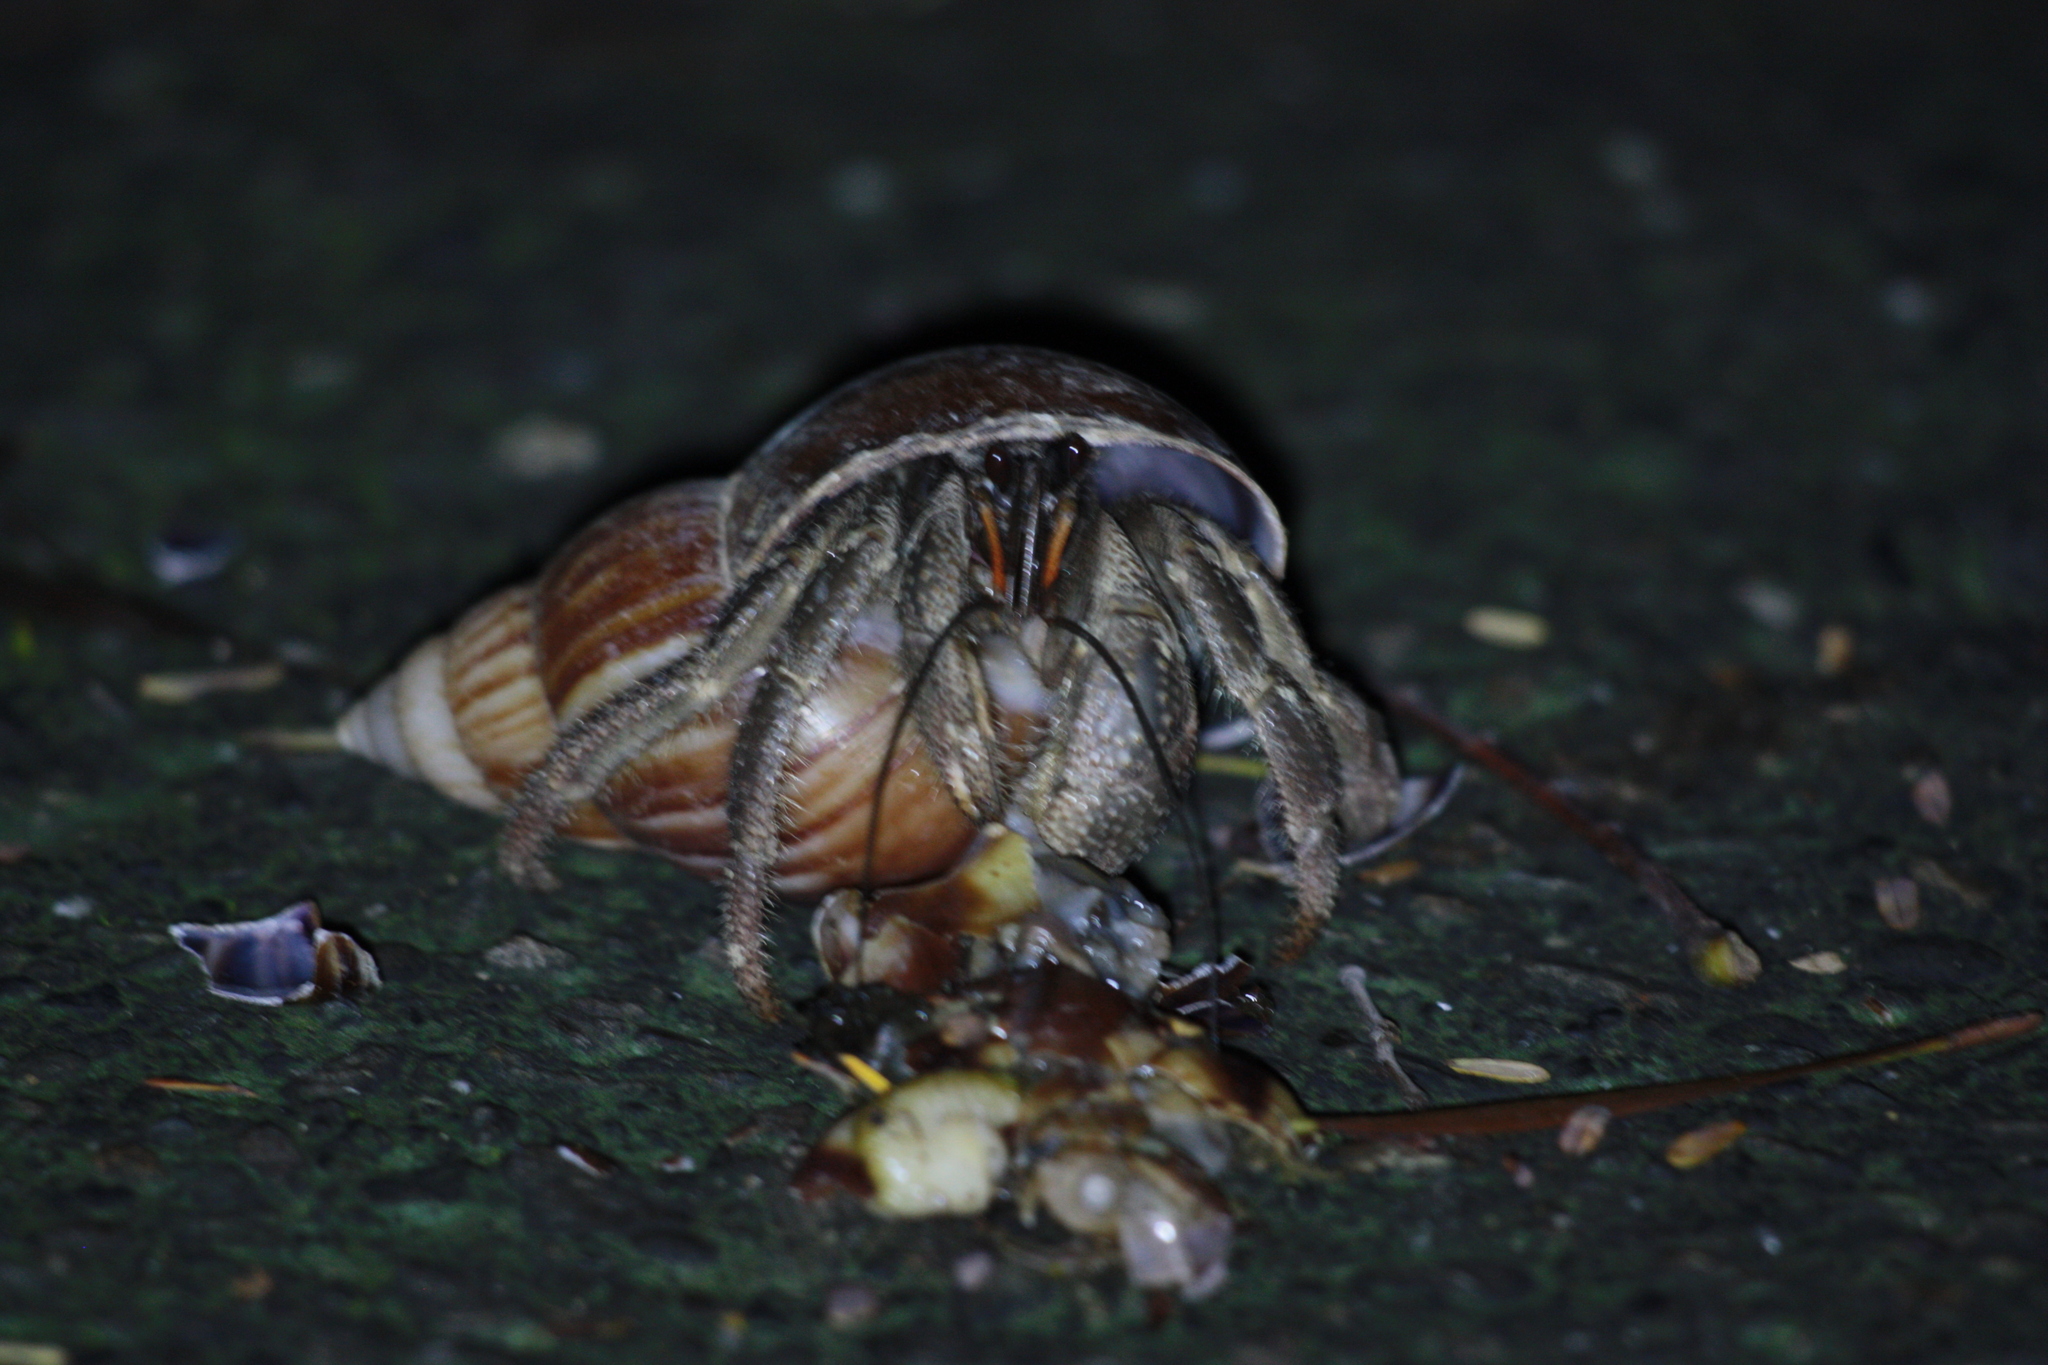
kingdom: Animalia
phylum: Arthropoda
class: Malacostraca
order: Decapoda
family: Coenobitidae
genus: Coenobita
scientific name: Coenobita cavipes
